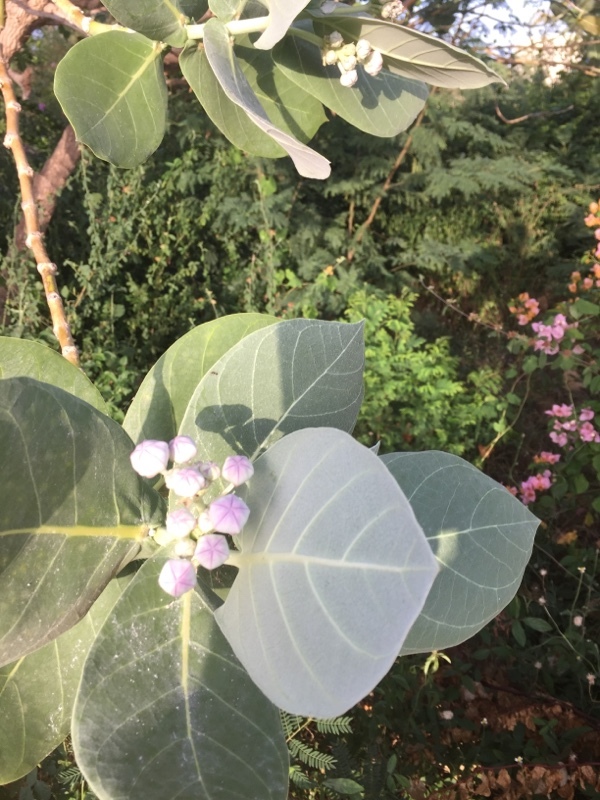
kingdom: Plantae
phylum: Tracheophyta
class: Magnoliopsida
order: Gentianales
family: Apocynaceae
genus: Calotropis
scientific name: Calotropis procera
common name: Roostertree
